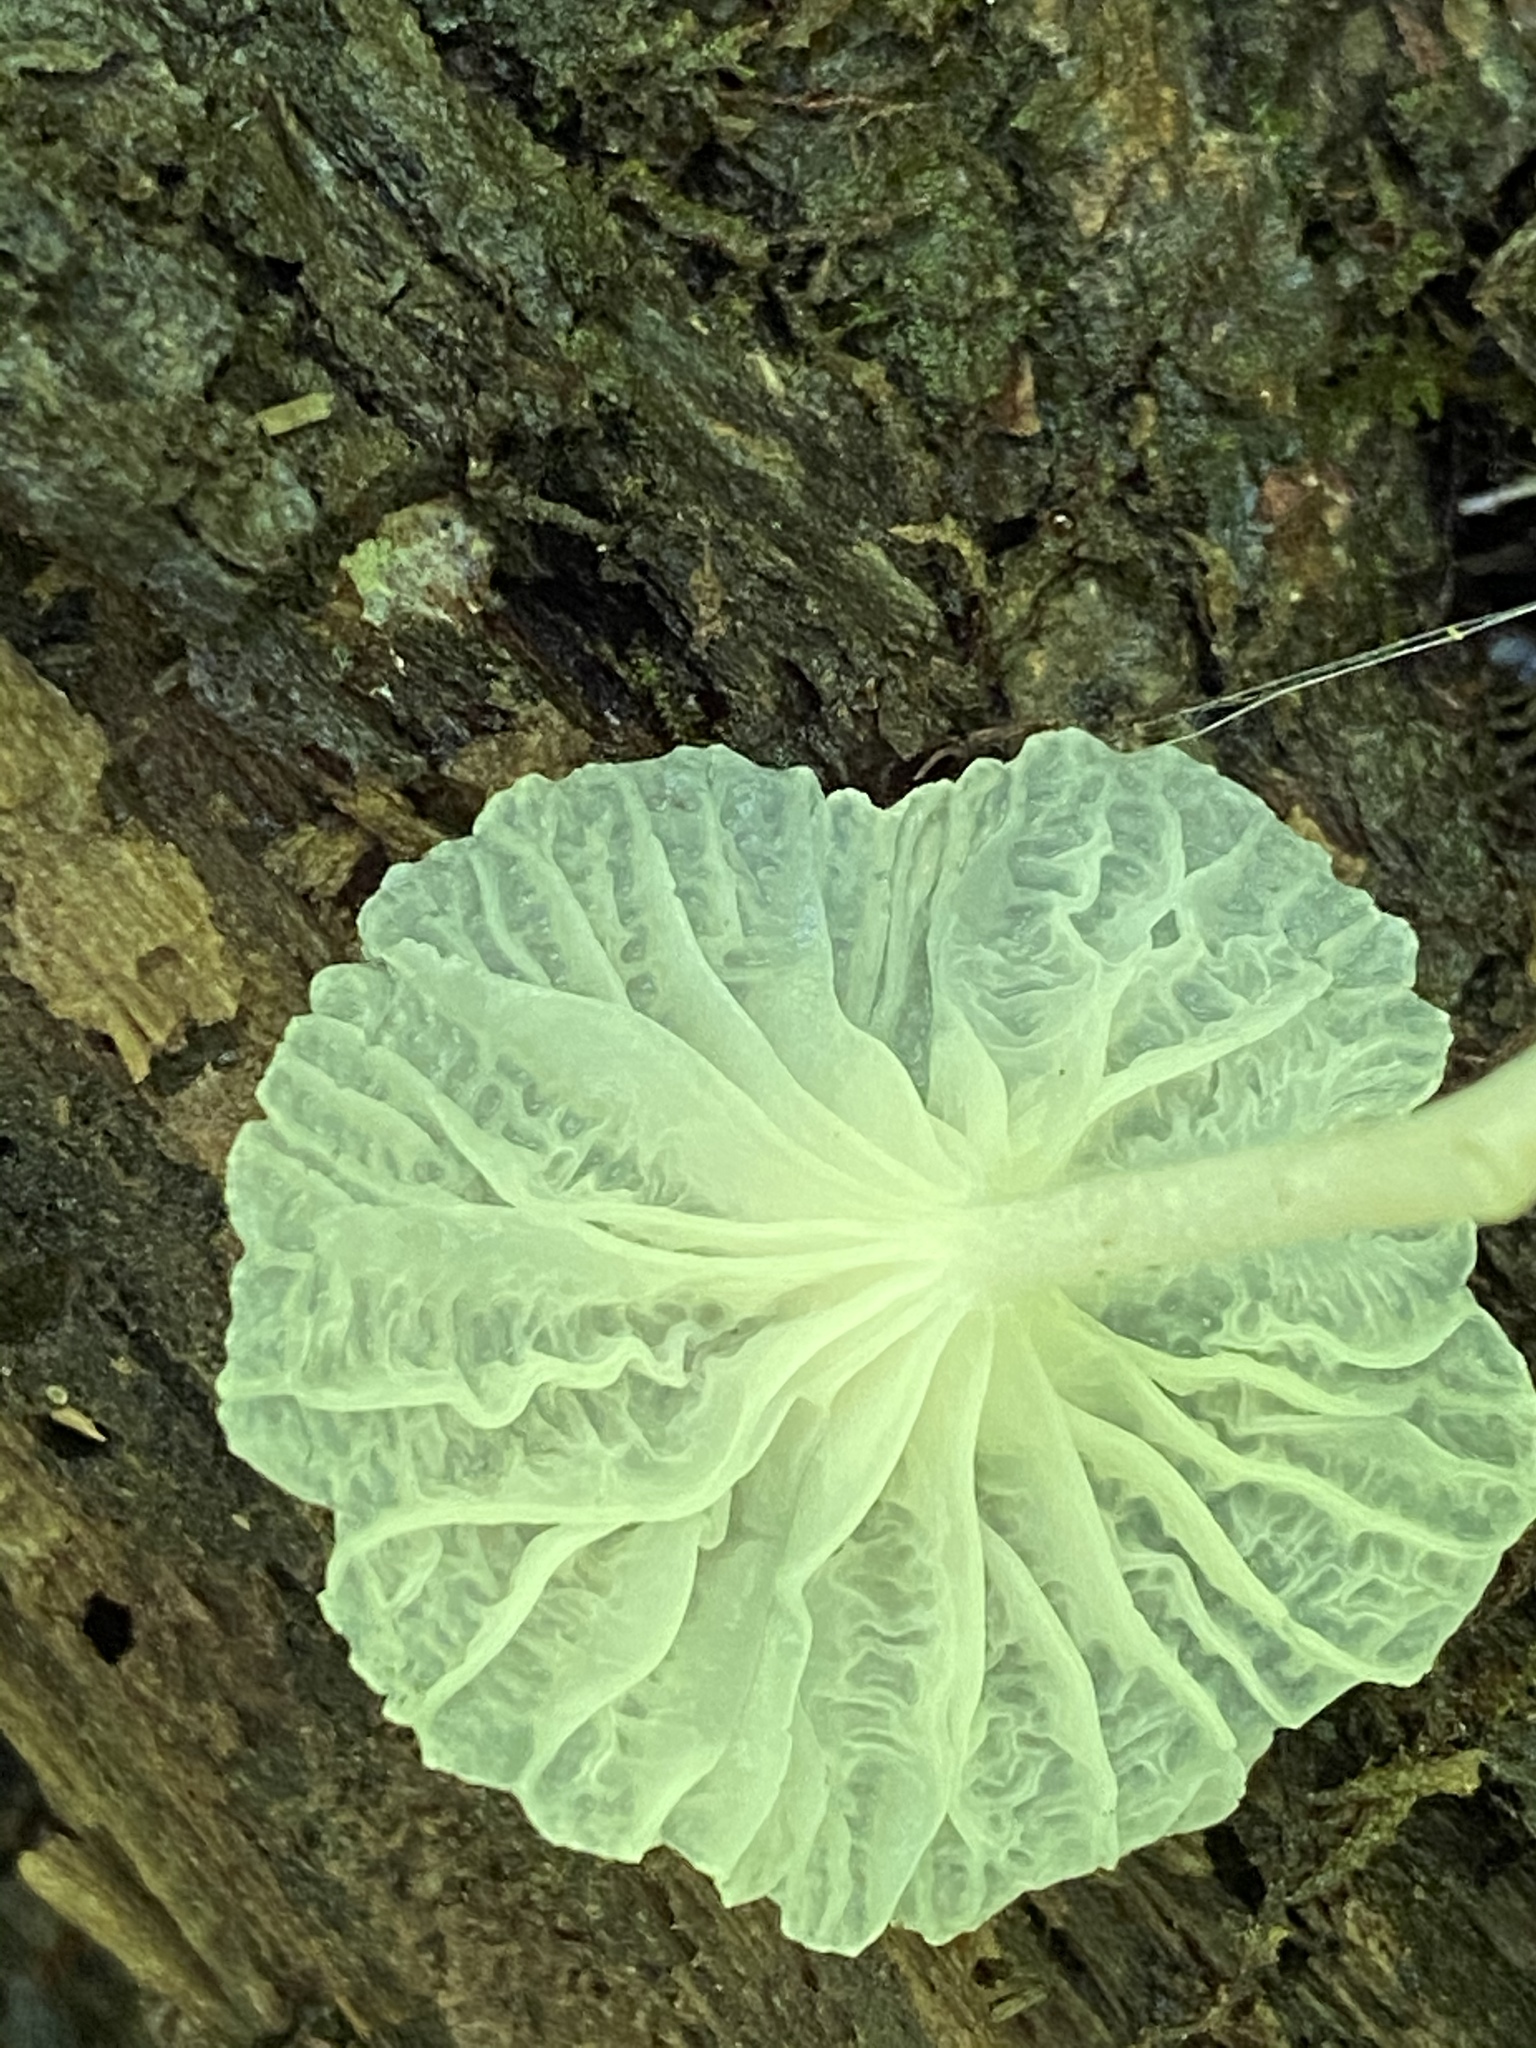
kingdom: Fungi
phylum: Basidiomycota
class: Agaricomycetes
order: Agaricales
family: Omphalotaceae
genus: Marasmiellus
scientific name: Marasmiellus candidus
